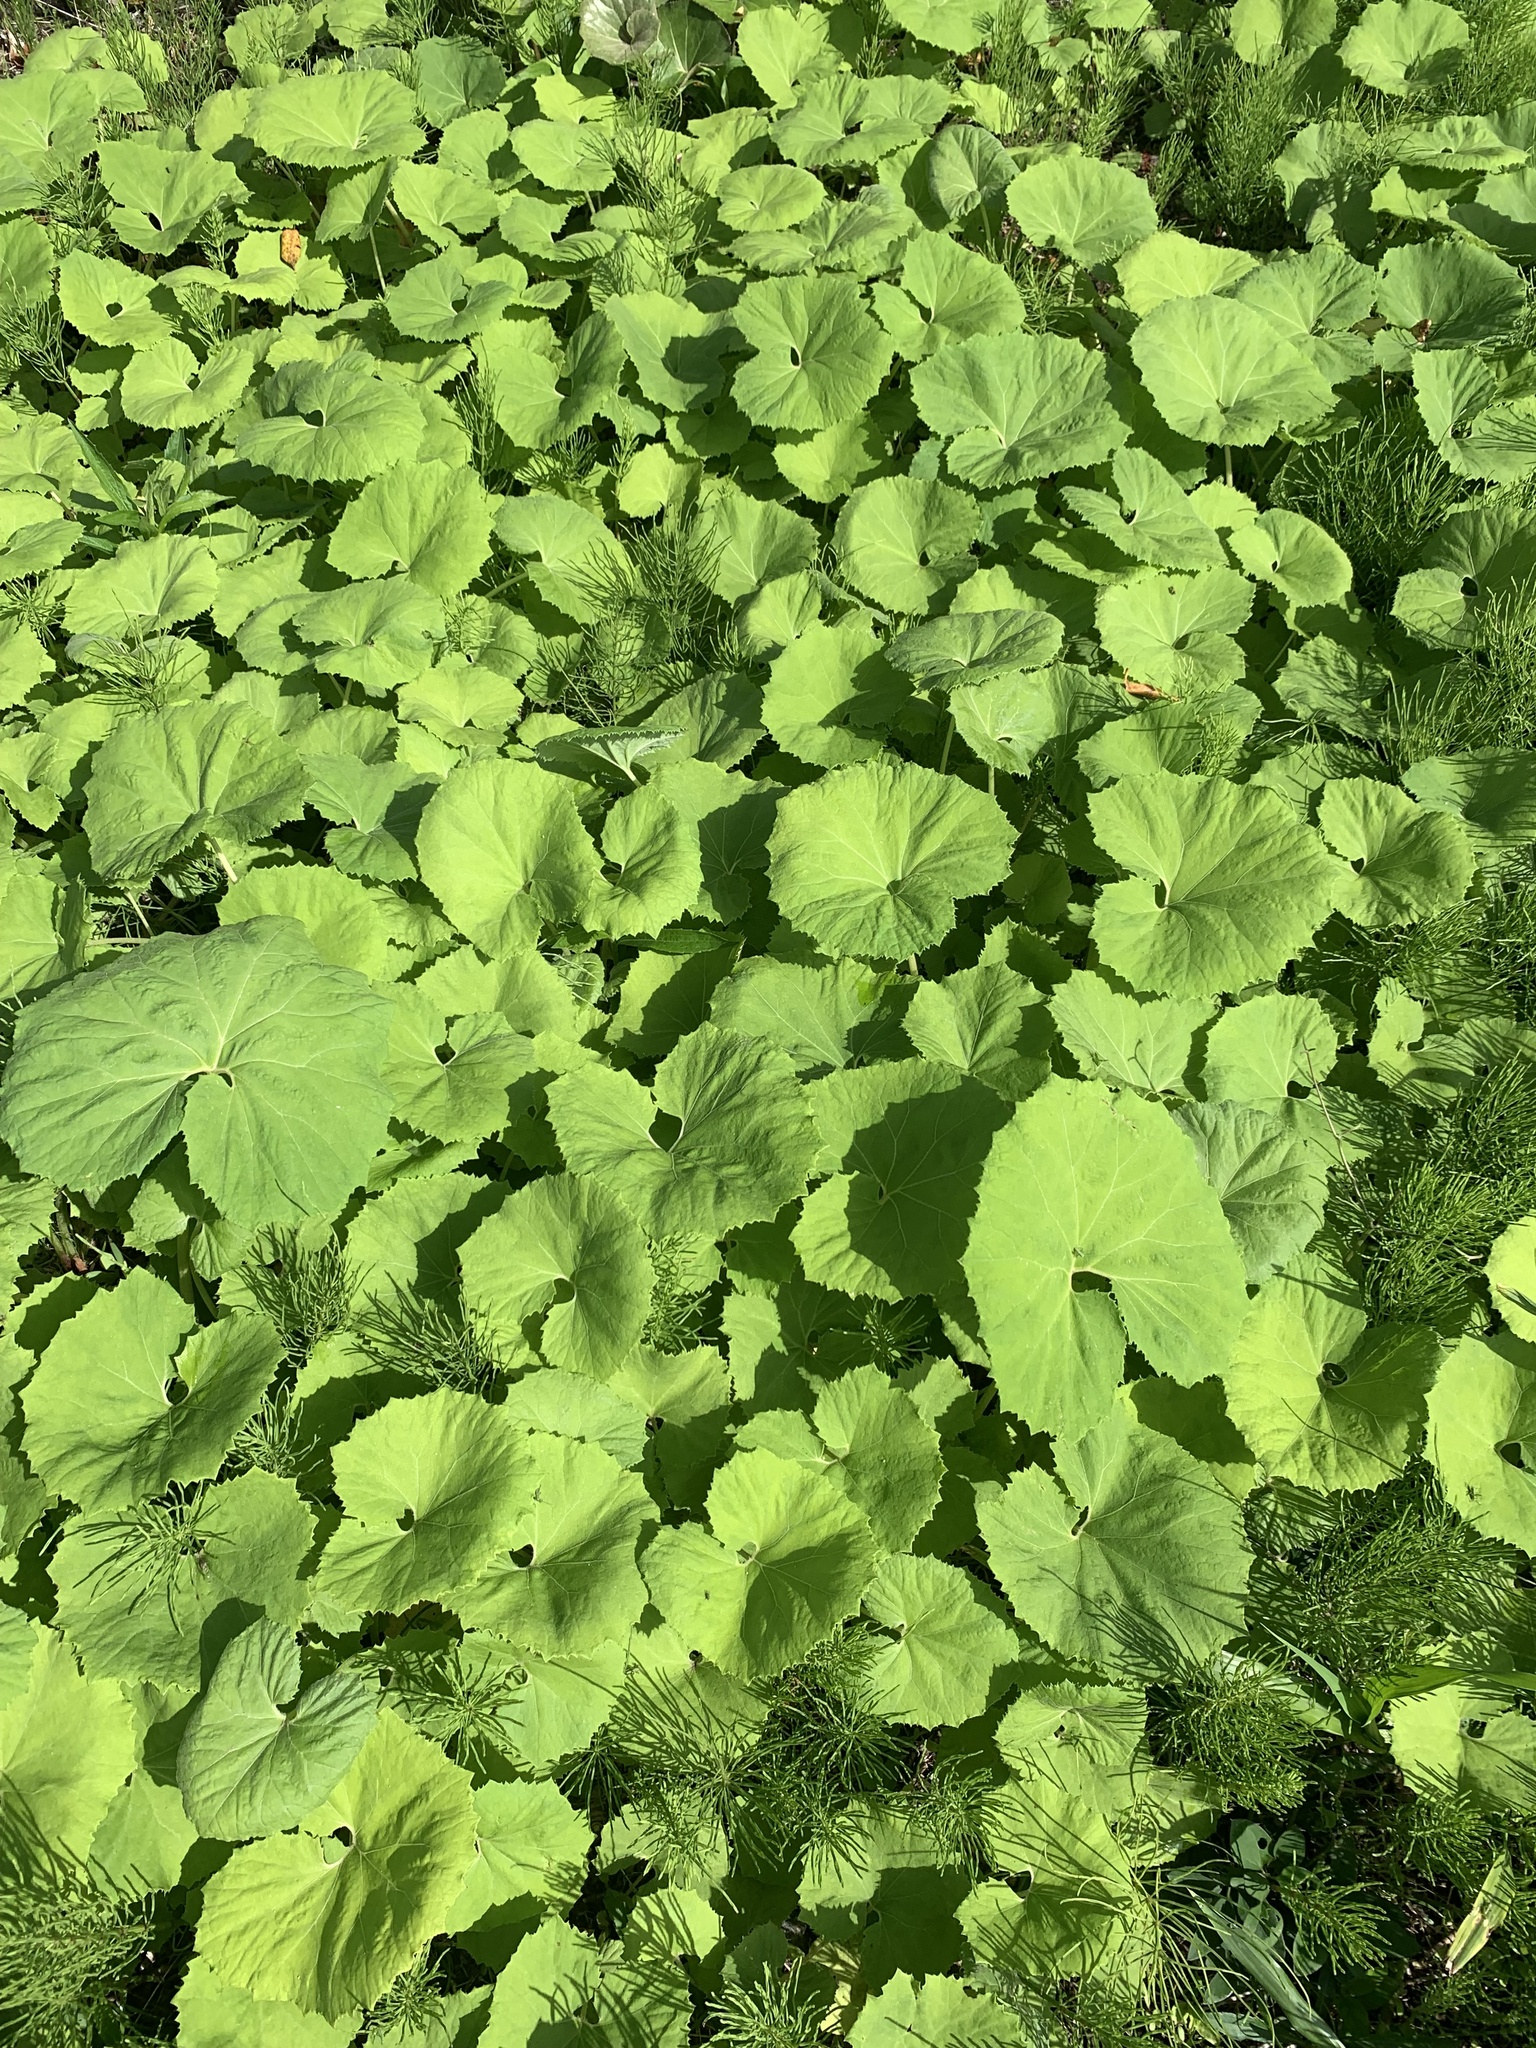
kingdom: Plantae
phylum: Tracheophyta
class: Magnoliopsida
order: Asterales
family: Asteraceae
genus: Petasites
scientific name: Petasites japonicus
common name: Giant butterbur
